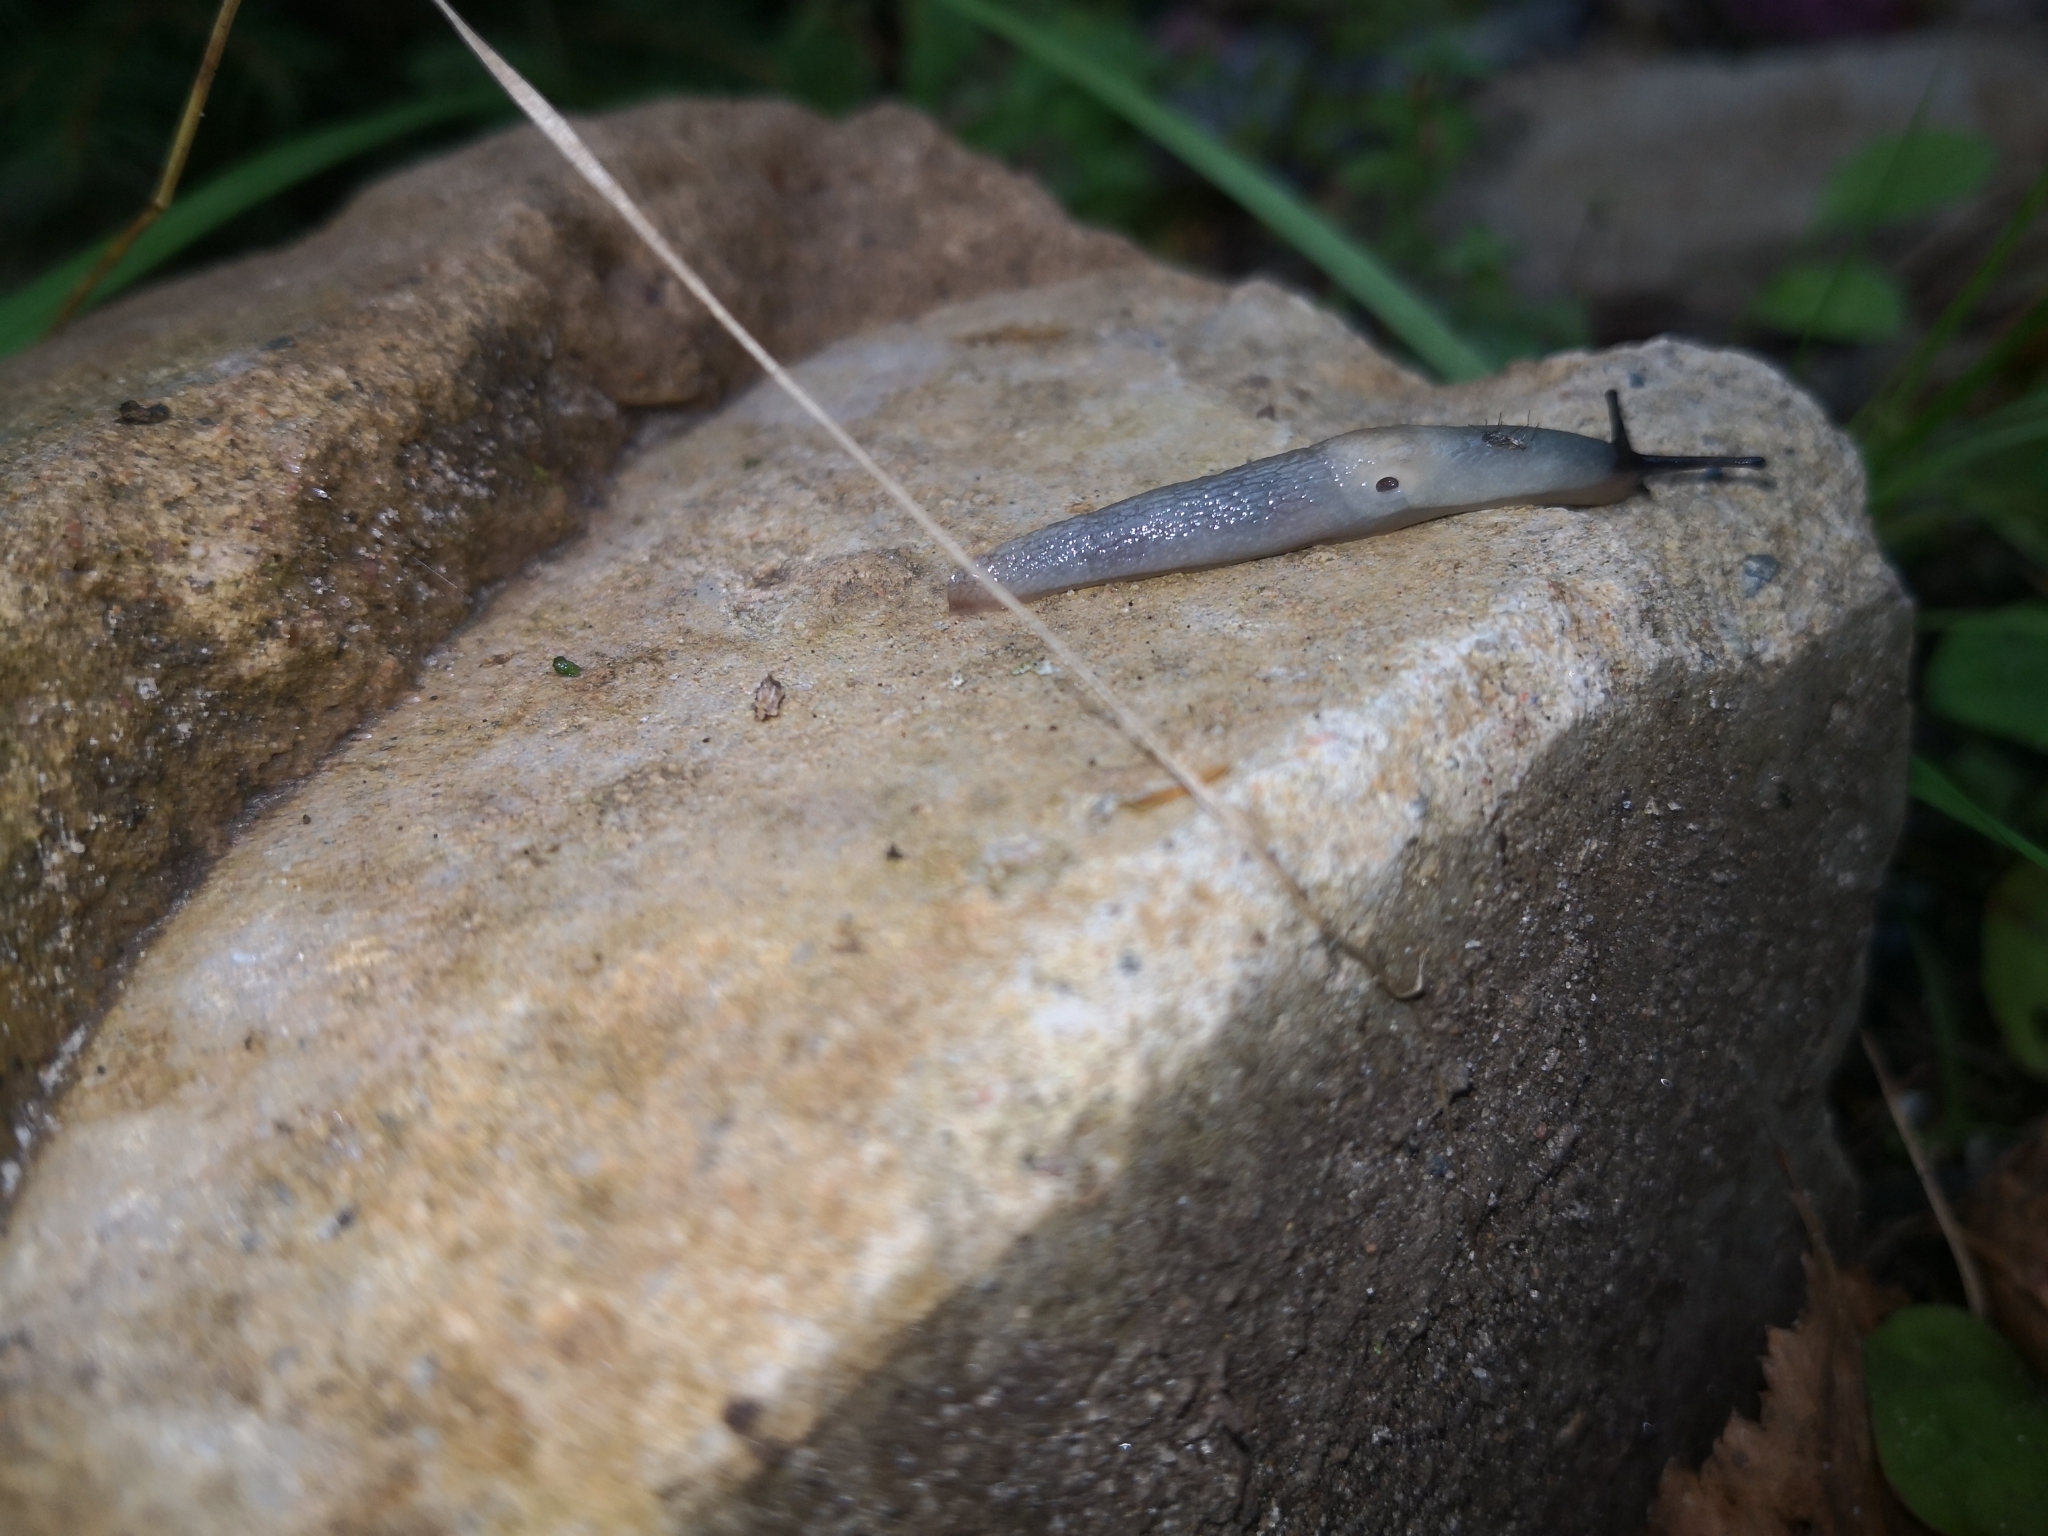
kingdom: Animalia
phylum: Mollusca
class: Gastropoda
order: Stylommatophora
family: Agriolimacidae
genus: Krynickillus
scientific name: Krynickillus melanocephalus
